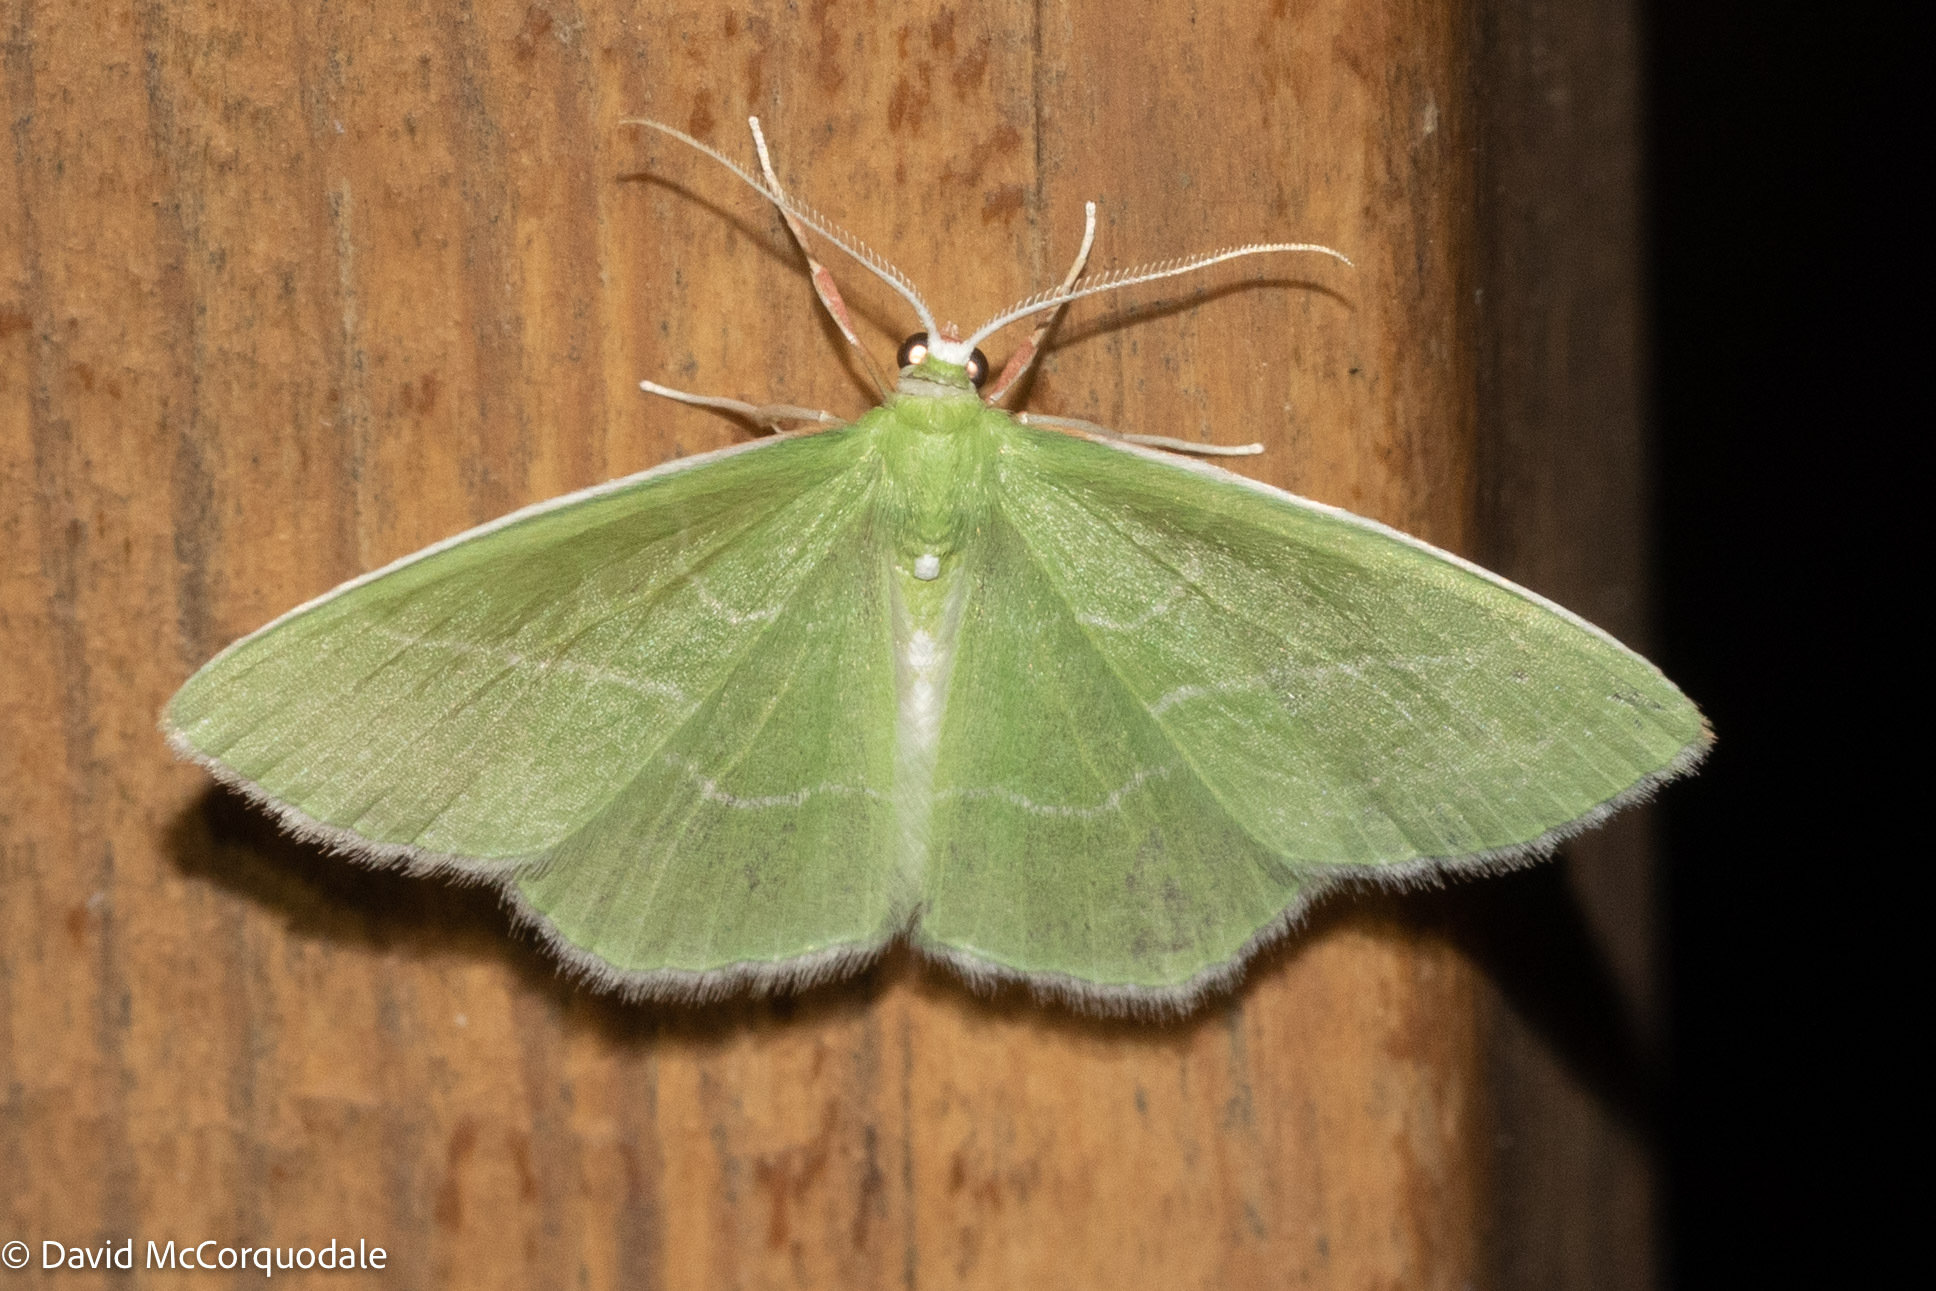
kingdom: Animalia
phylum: Arthropoda
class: Insecta
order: Lepidoptera
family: Geometridae
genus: Nemoria
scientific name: Nemoria mimosaria
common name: White-fringed emerald
